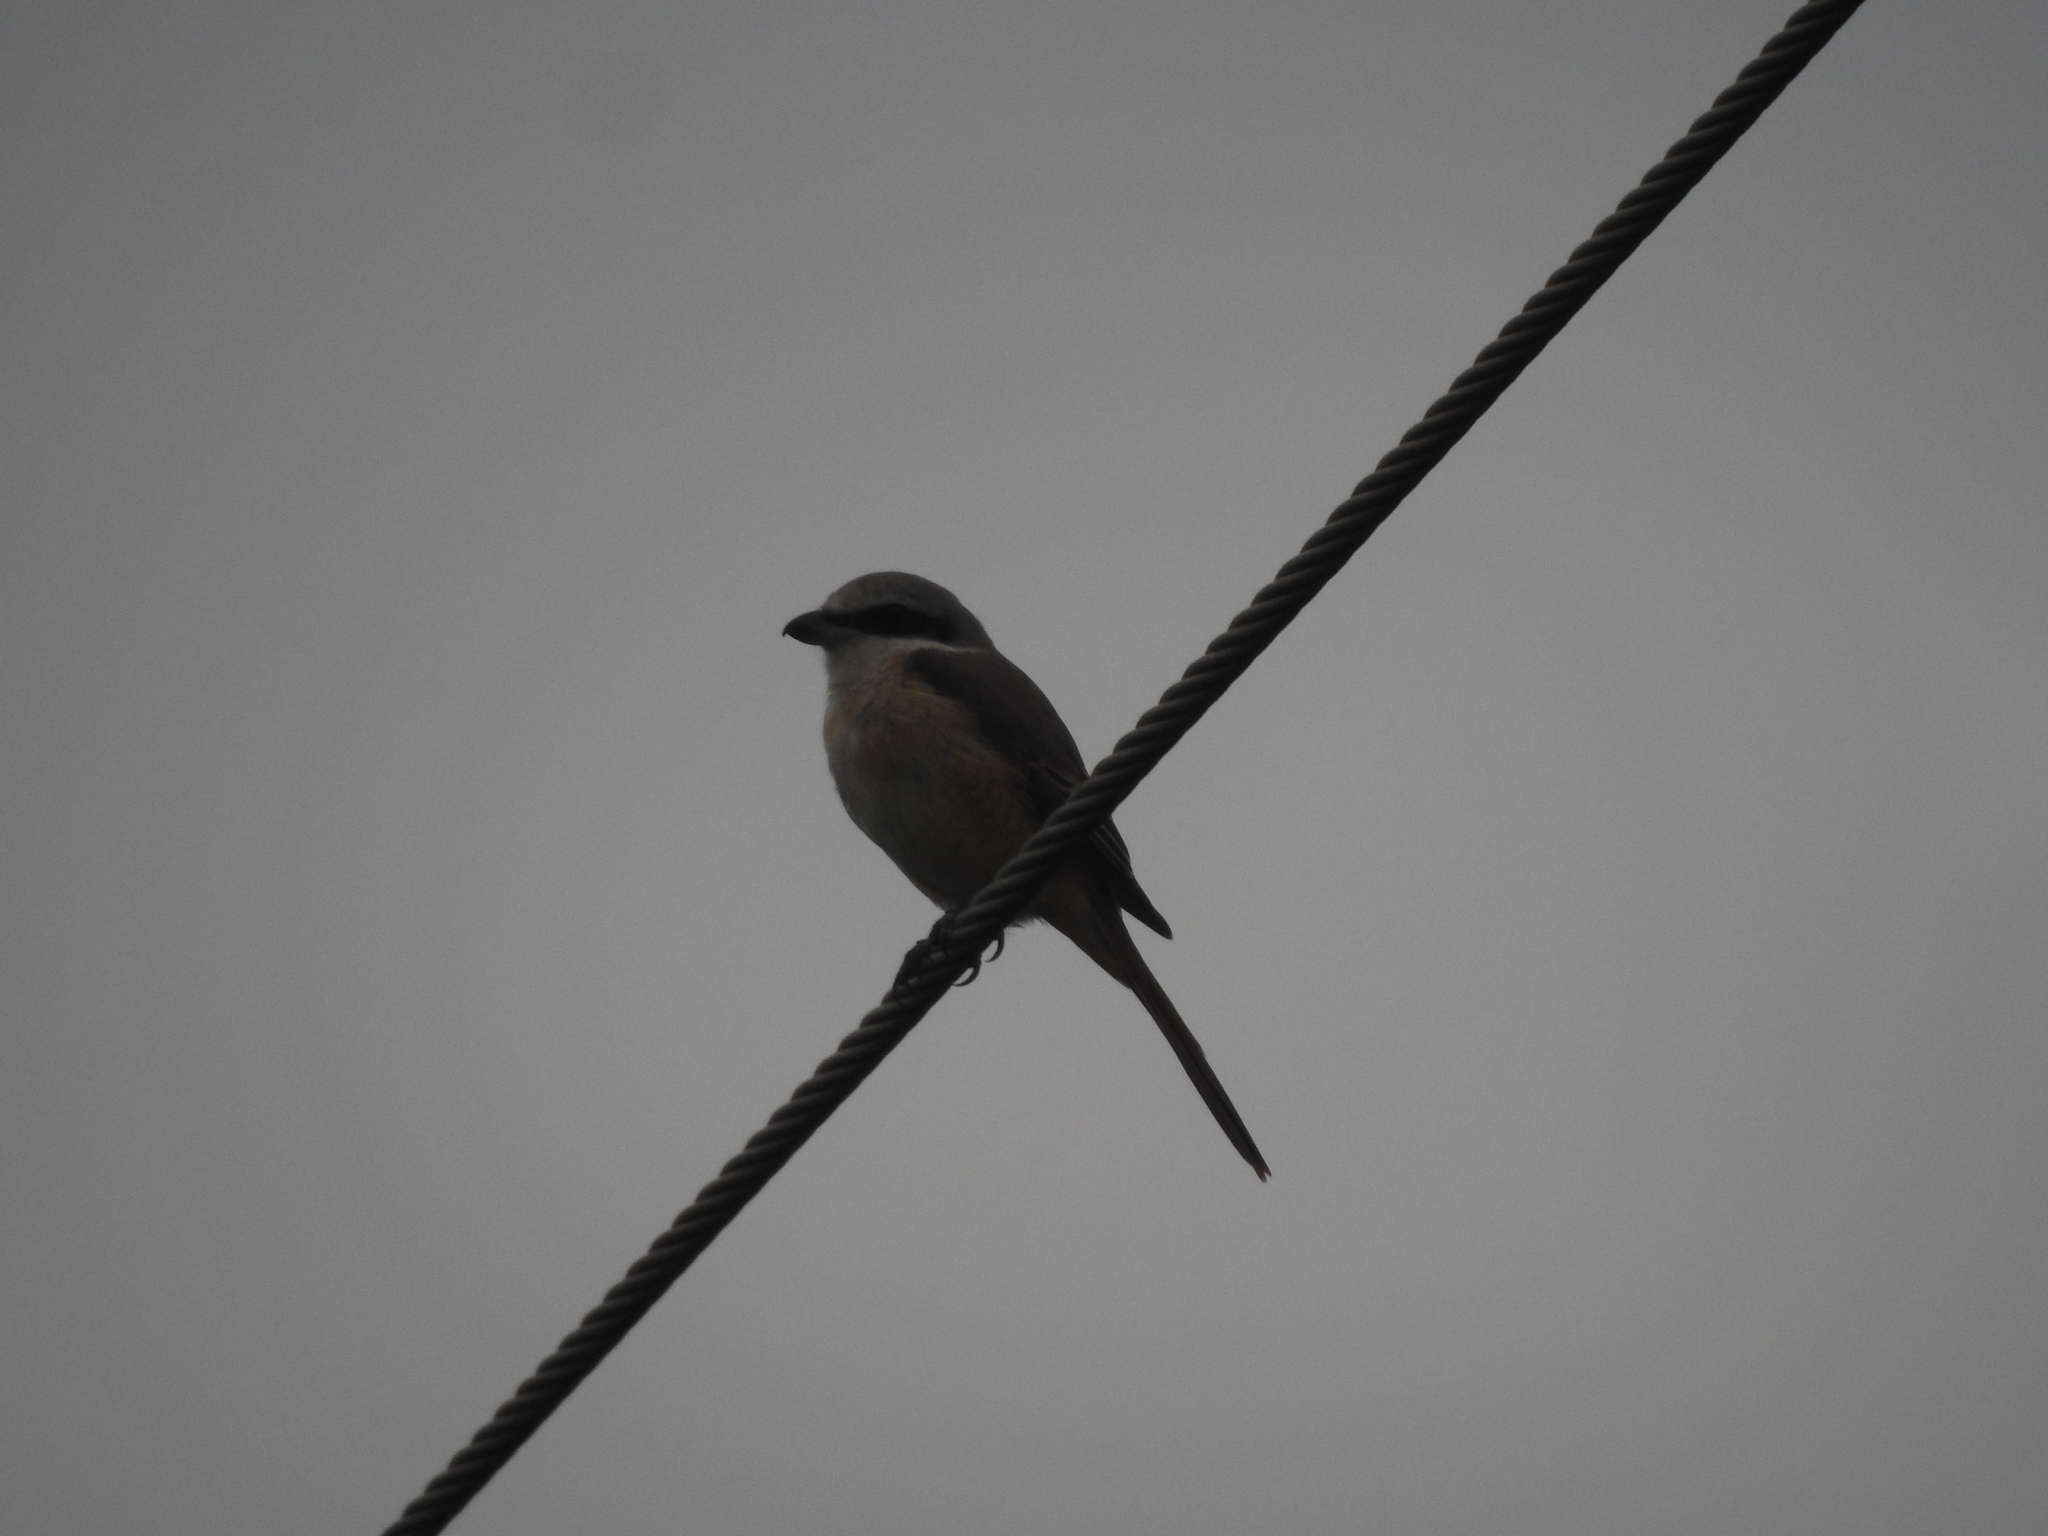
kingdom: Animalia
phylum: Chordata
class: Aves
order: Passeriformes
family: Laniidae
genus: Lanius
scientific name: Lanius cristatus
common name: Brown shrike
